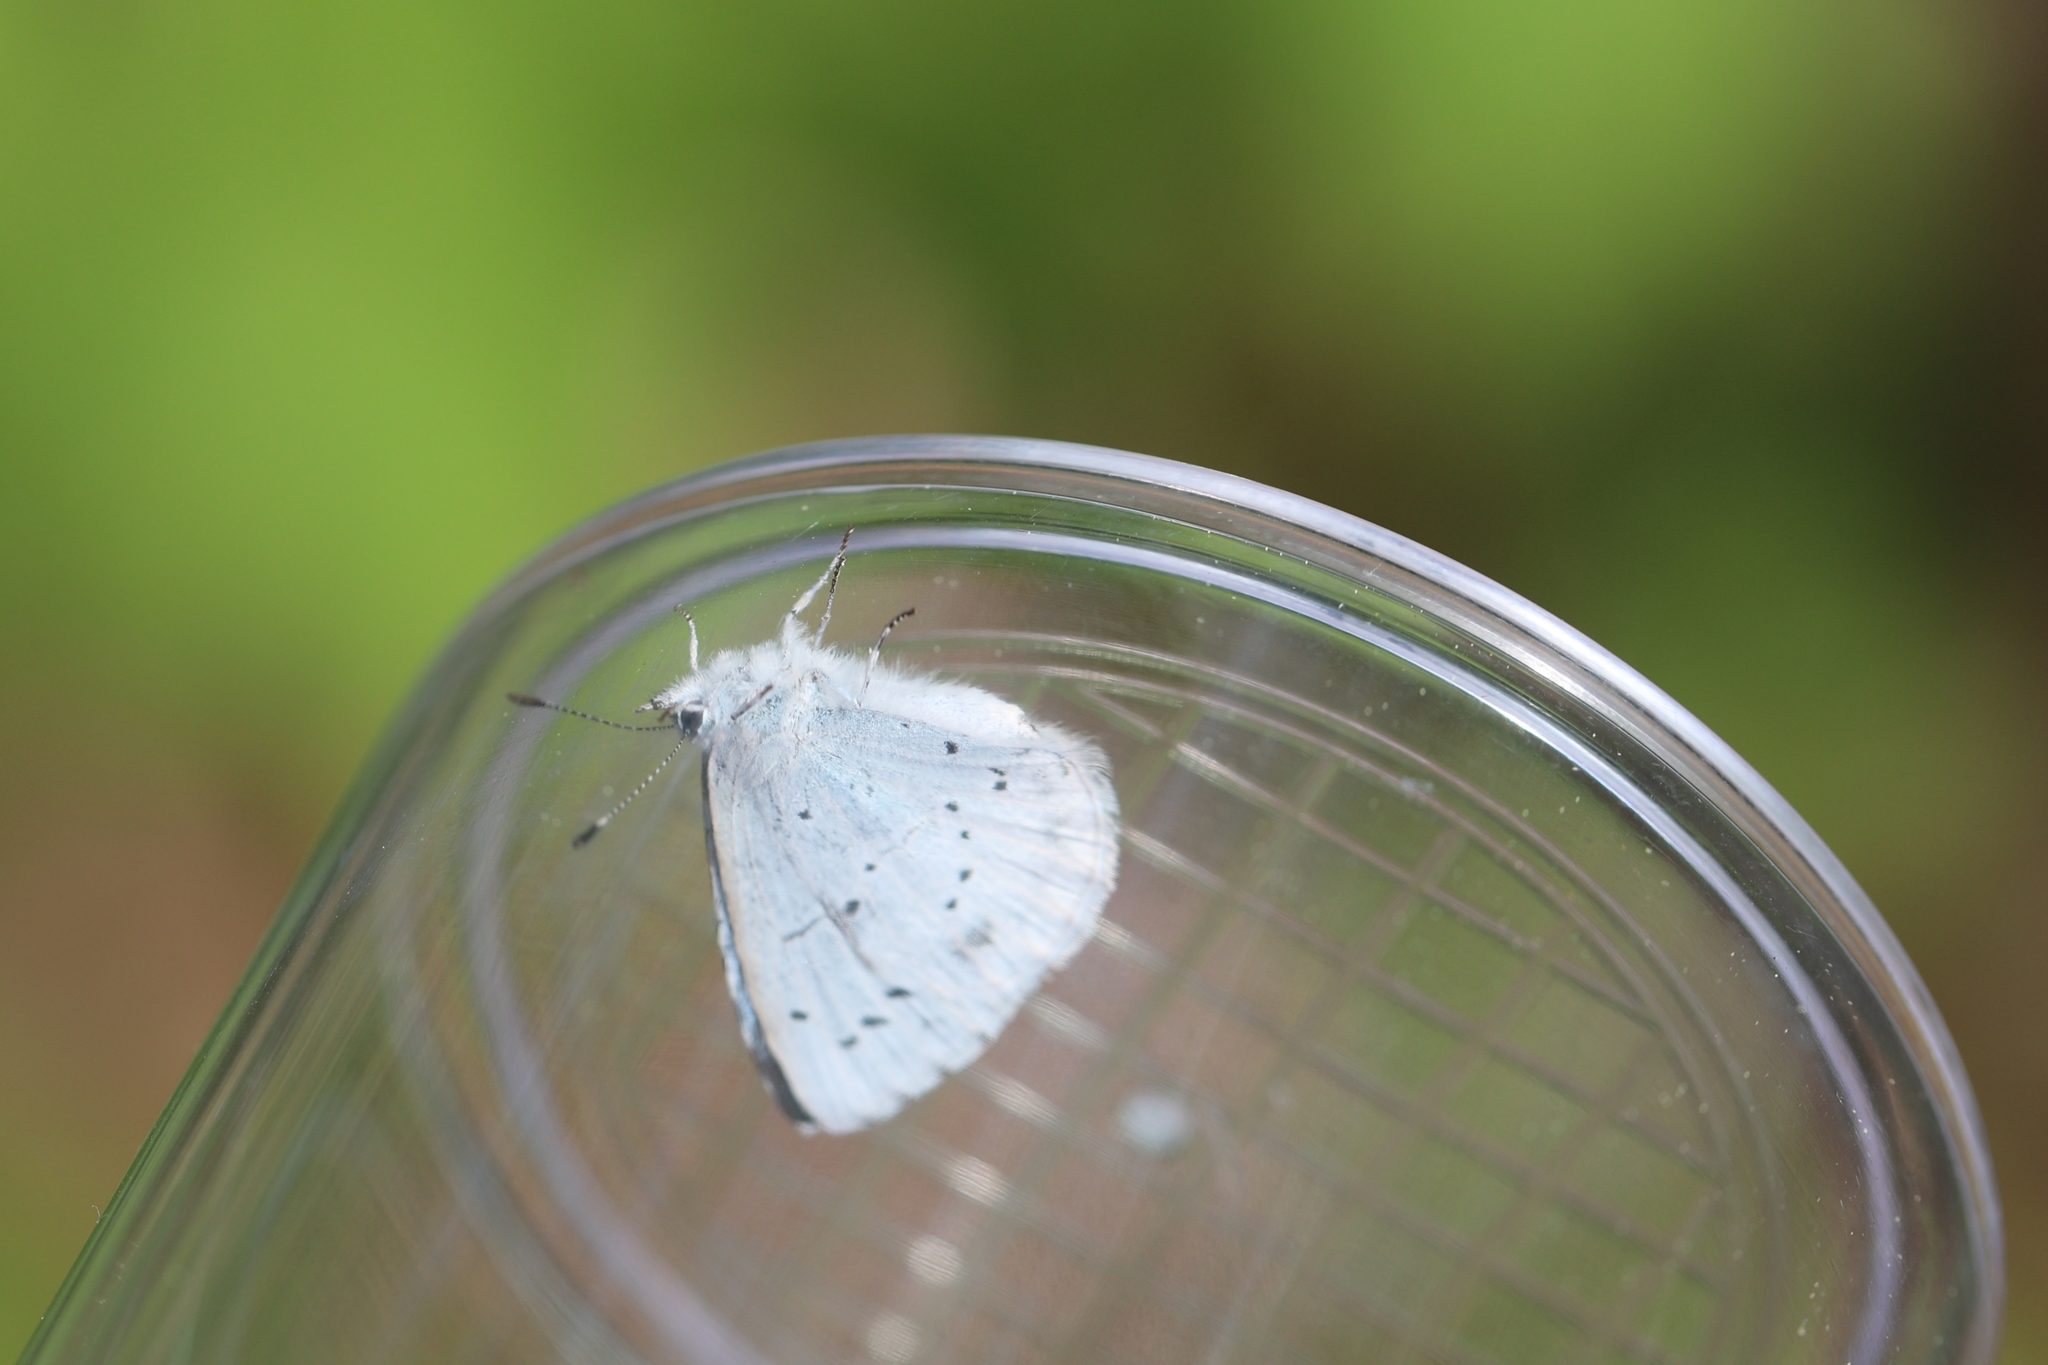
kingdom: Animalia
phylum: Arthropoda
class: Insecta
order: Lepidoptera
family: Lycaenidae
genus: Celastrina
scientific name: Celastrina argiolus
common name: Holly blue
